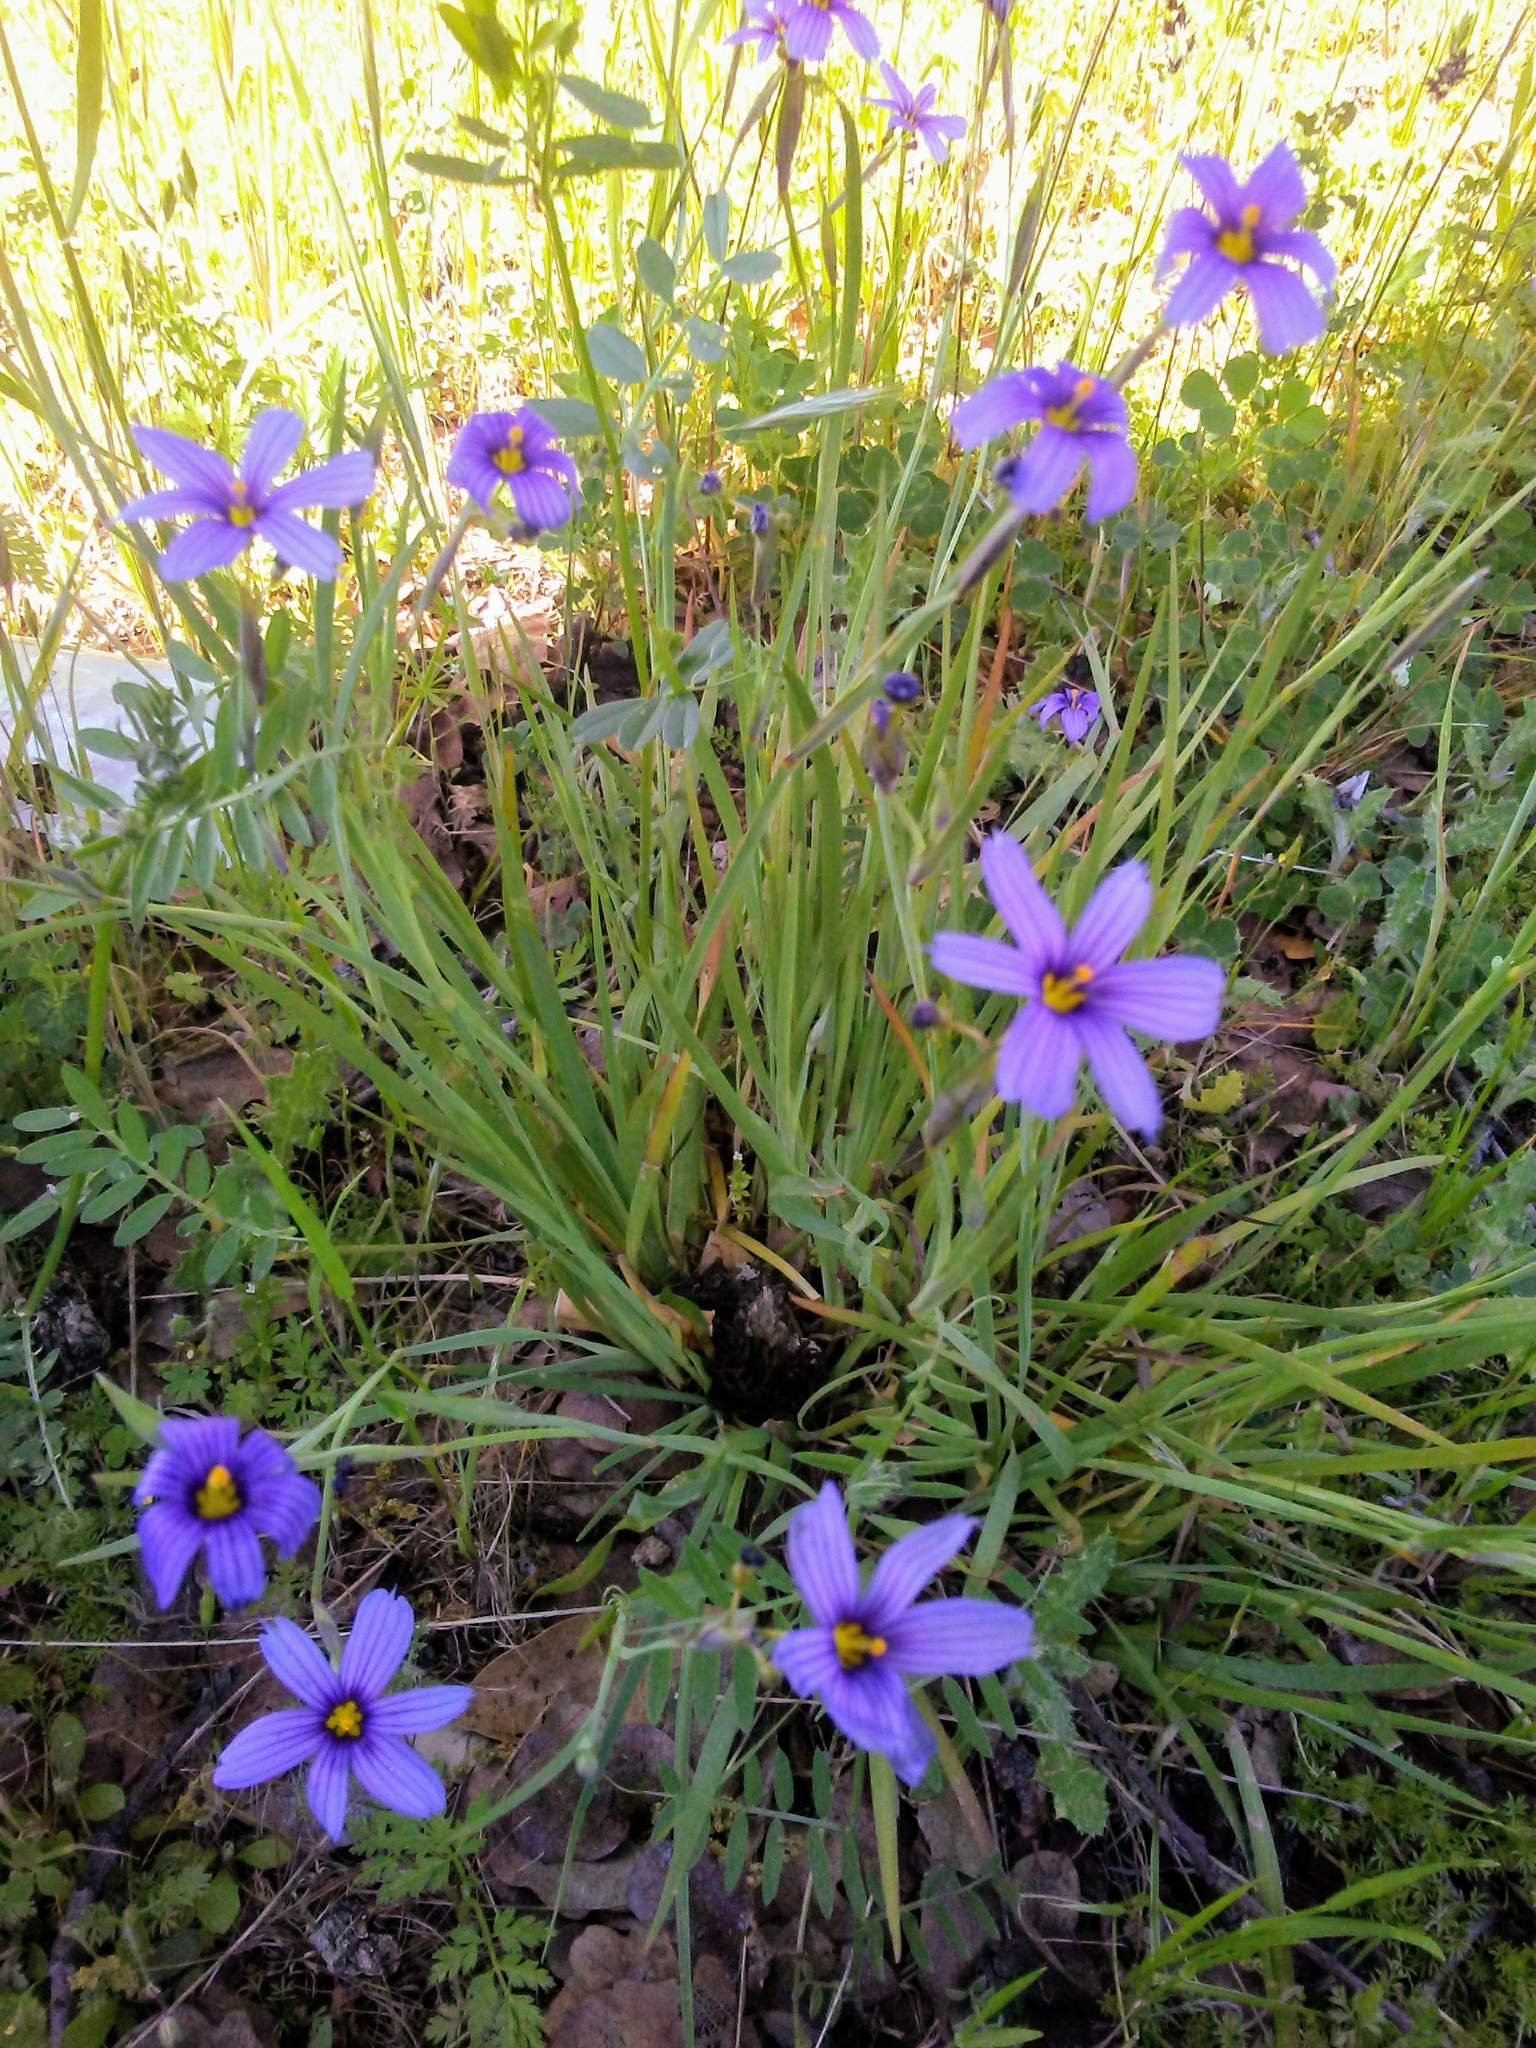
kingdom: Plantae
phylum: Tracheophyta
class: Liliopsida
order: Asparagales
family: Iridaceae
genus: Sisyrinchium
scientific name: Sisyrinchium bellum
